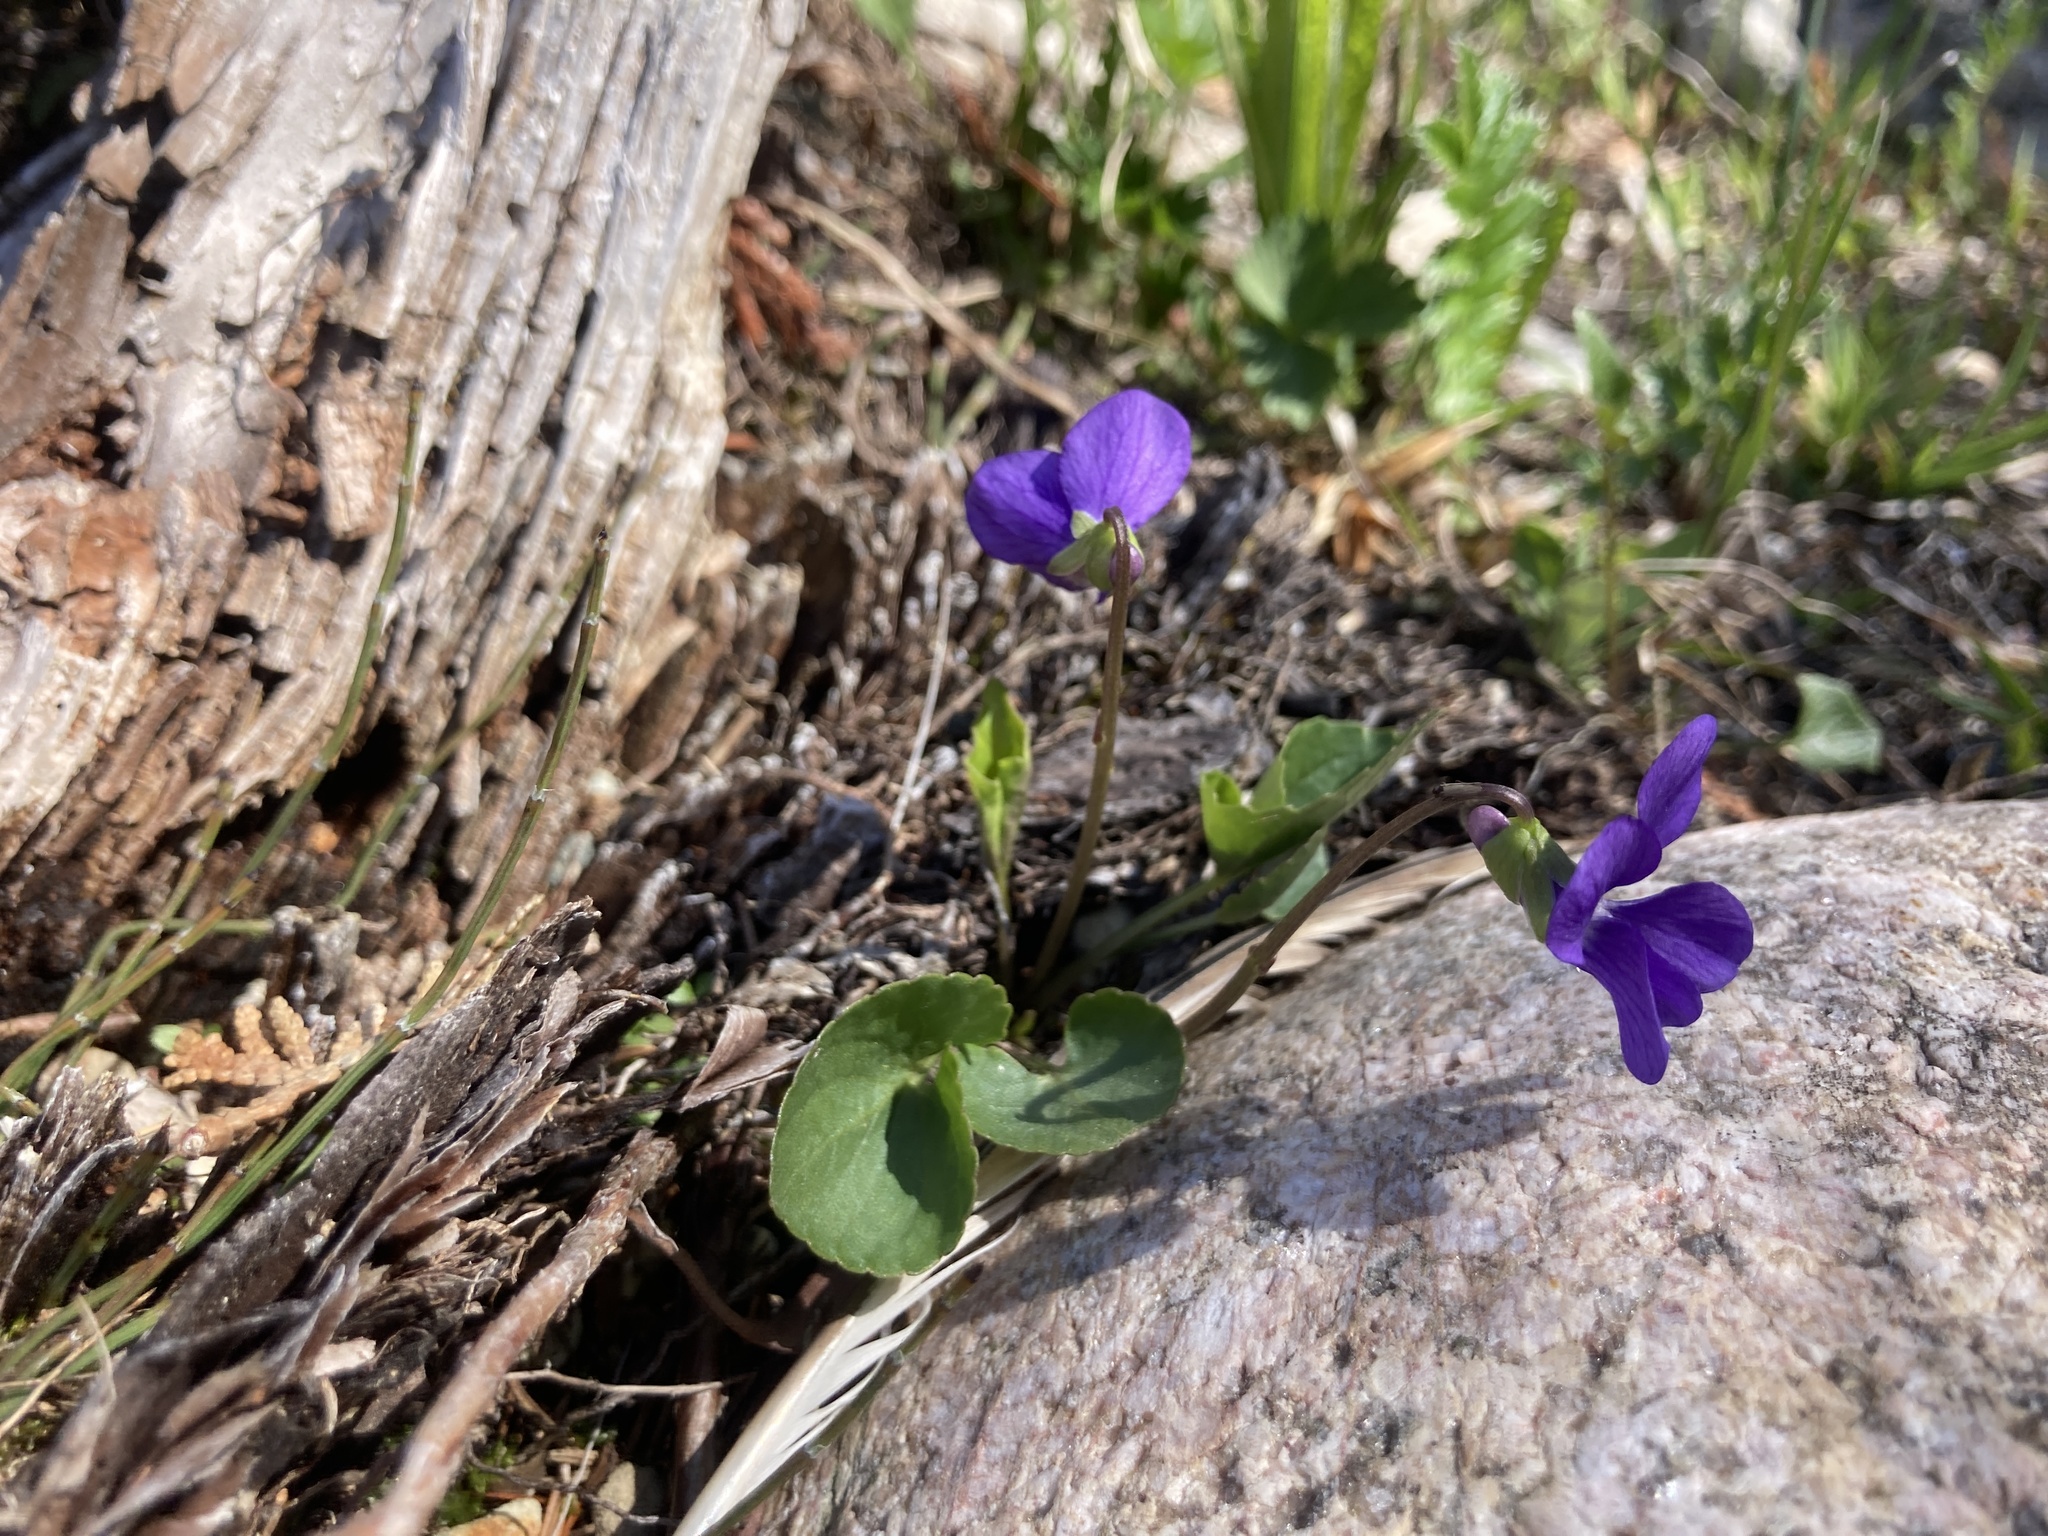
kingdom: Plantae
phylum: Tracheophyta
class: Magnoliopsida
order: Malpighiales
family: Violaceae
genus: Viola
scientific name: Viola nephrophylla
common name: Blue meadow violet
